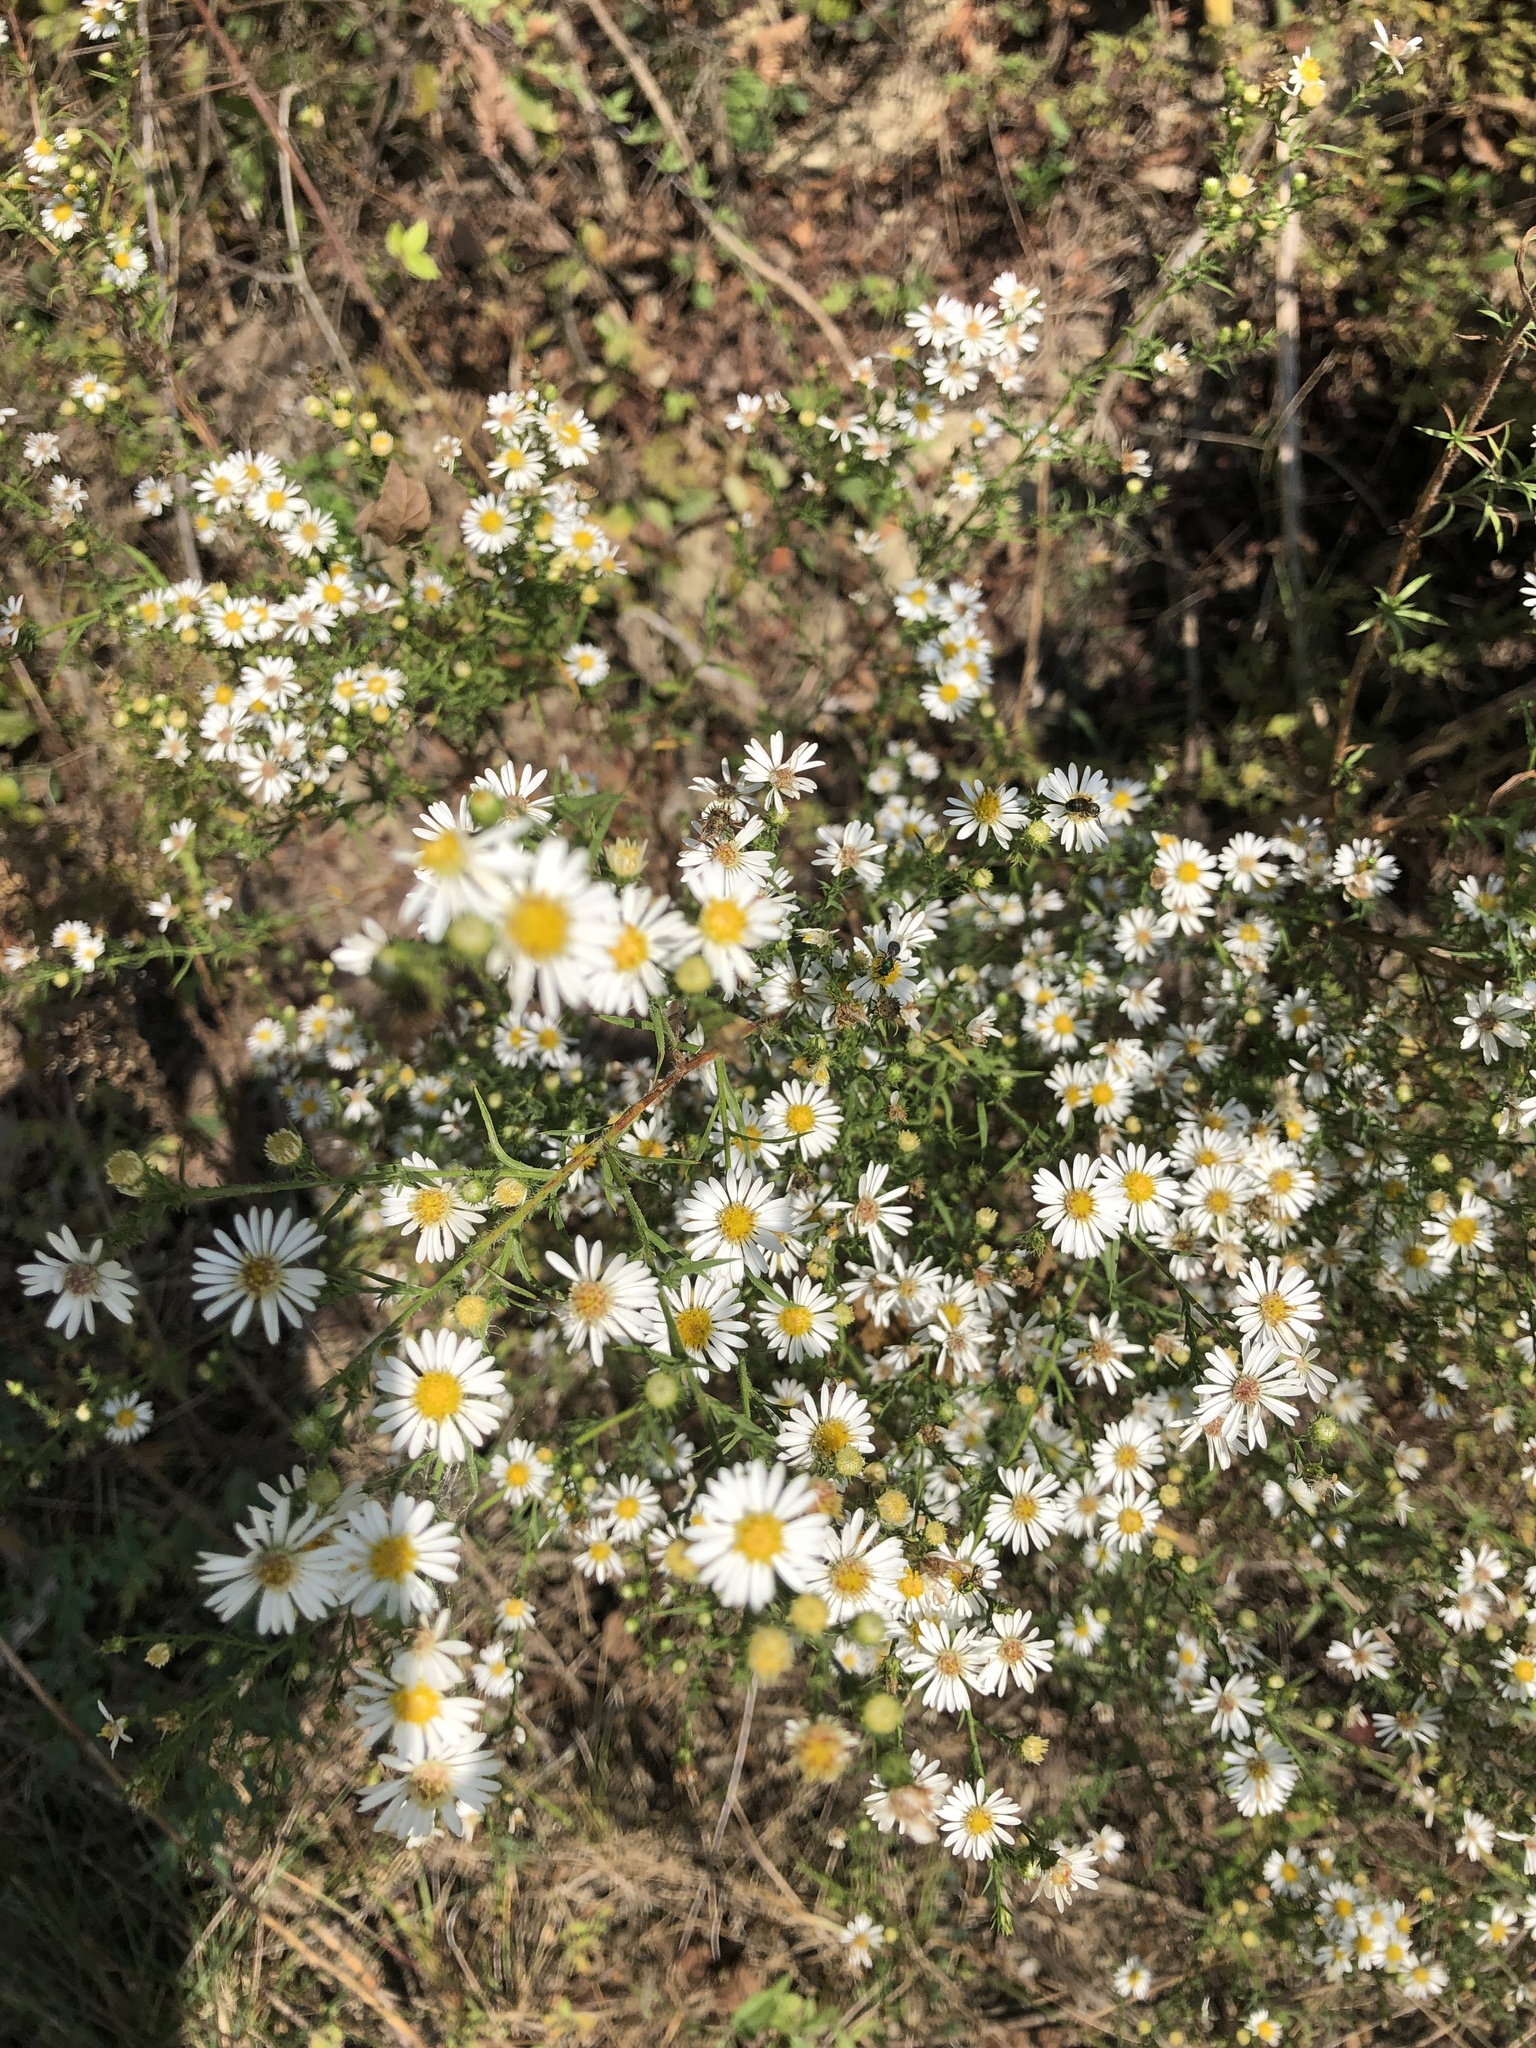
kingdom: Plantae
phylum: Tracheophyta
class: Magnoliopsida
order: Asterales
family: Asteraceae
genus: Symphyotrichum
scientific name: Symphyotrichum pilosum
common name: Awl aster
